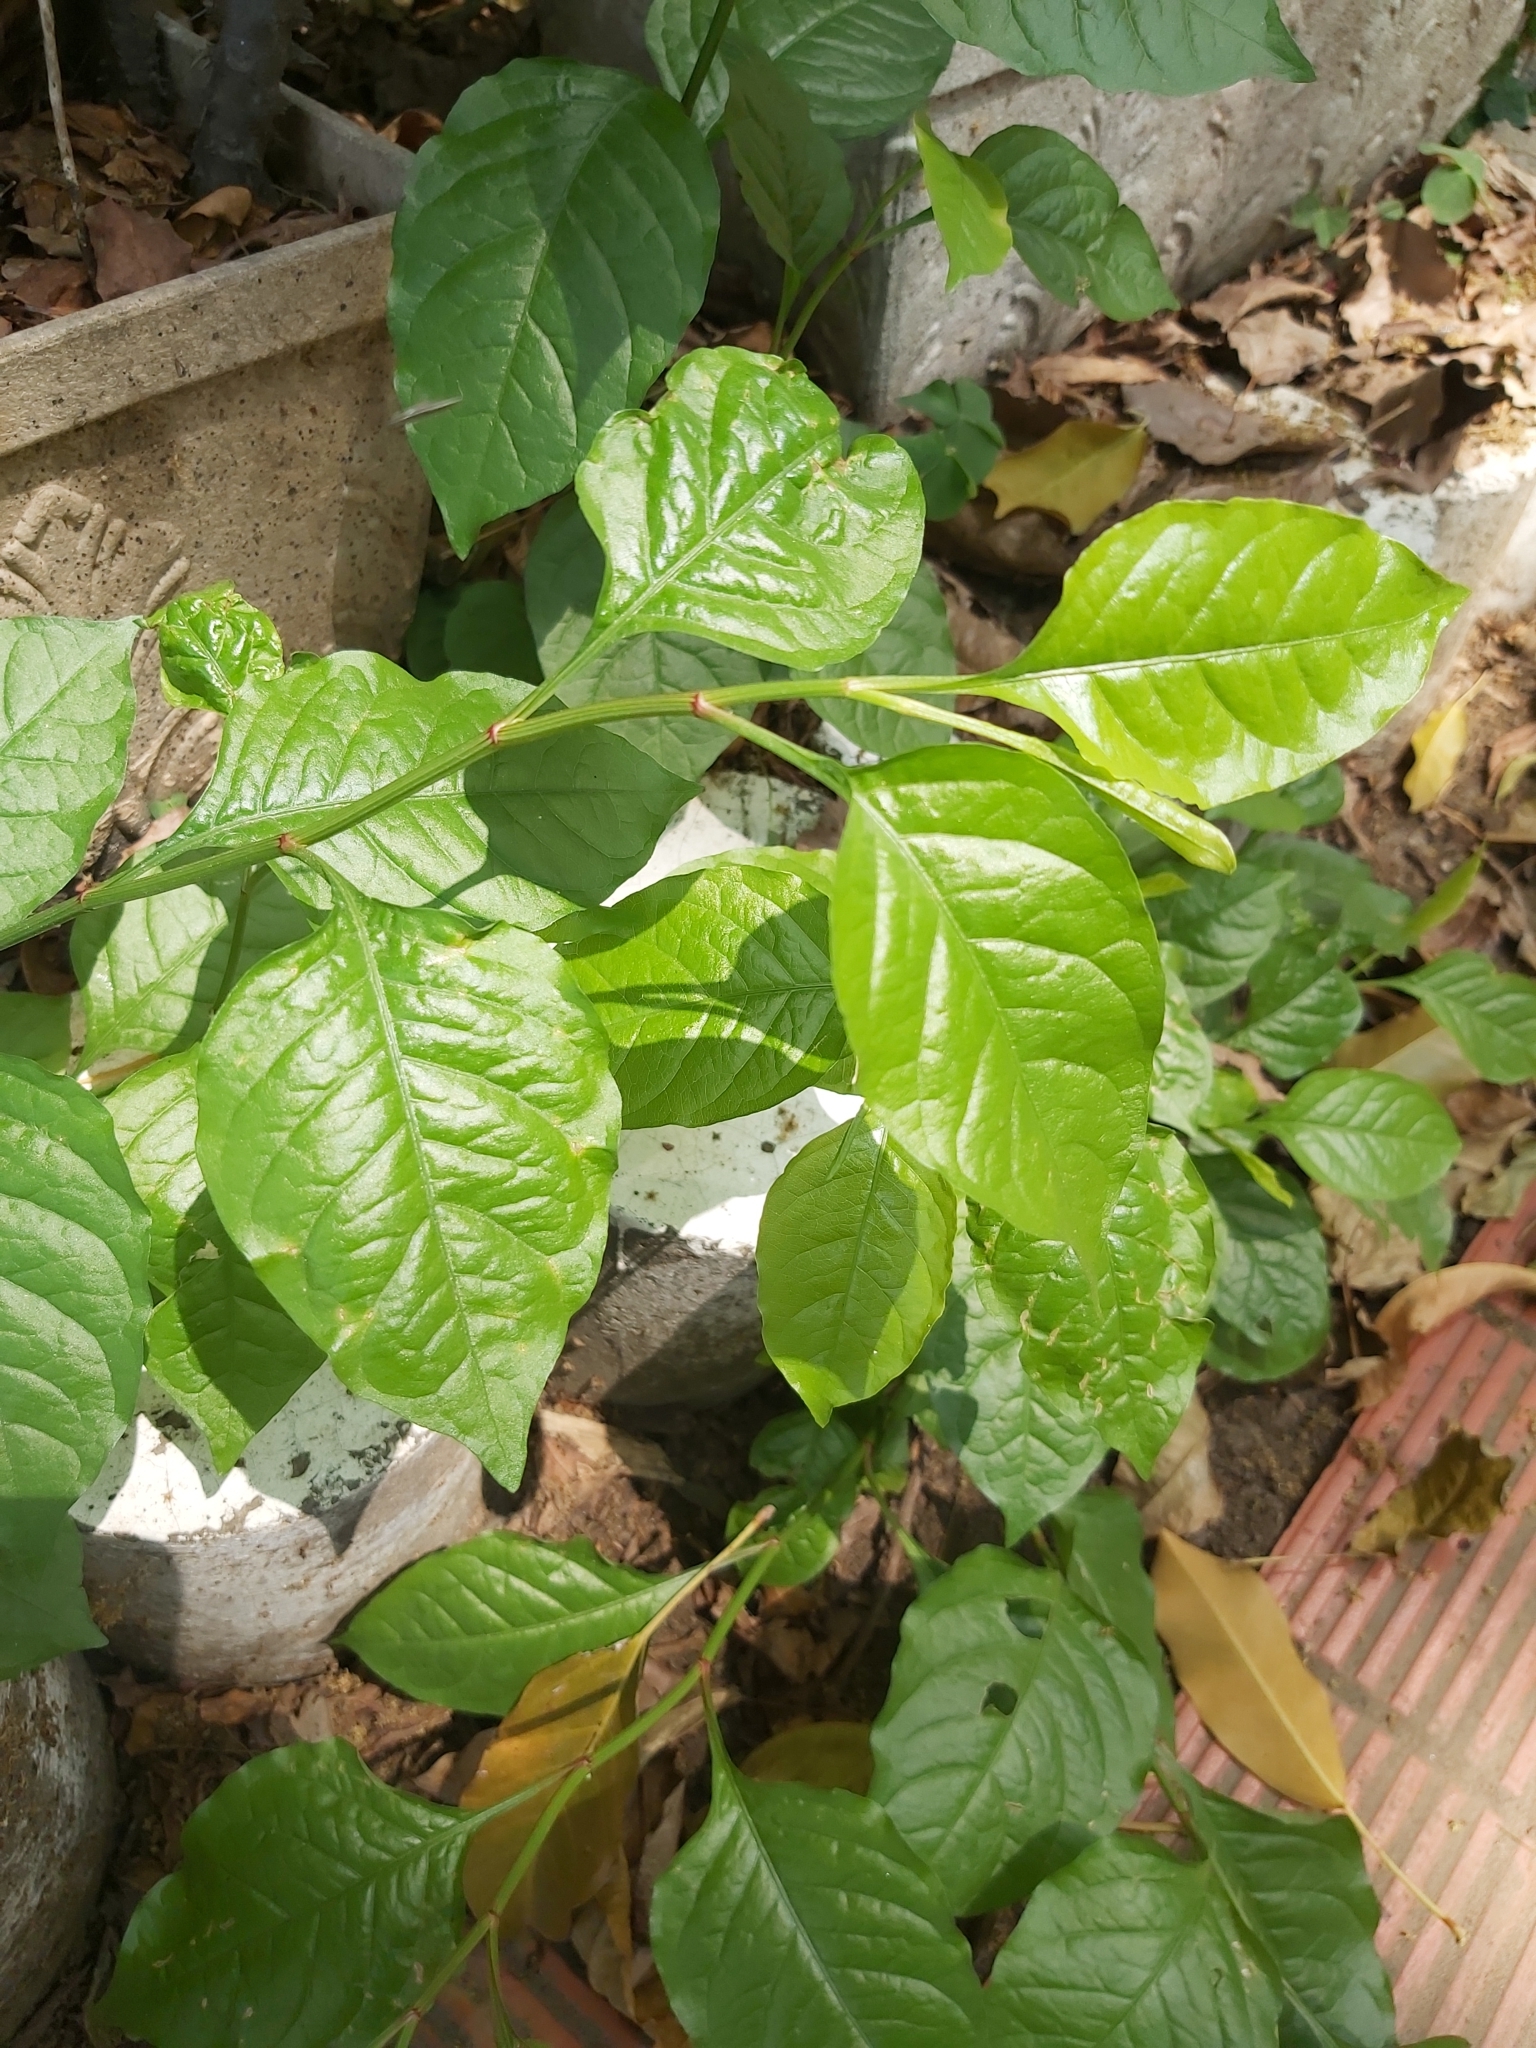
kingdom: Plantae
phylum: Tracheophyta
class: Magnoliopsida
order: Caryophyllales
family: Plumbaginaceae
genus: Plumbago
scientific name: Plumbago zeylanica
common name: Doctorbush
